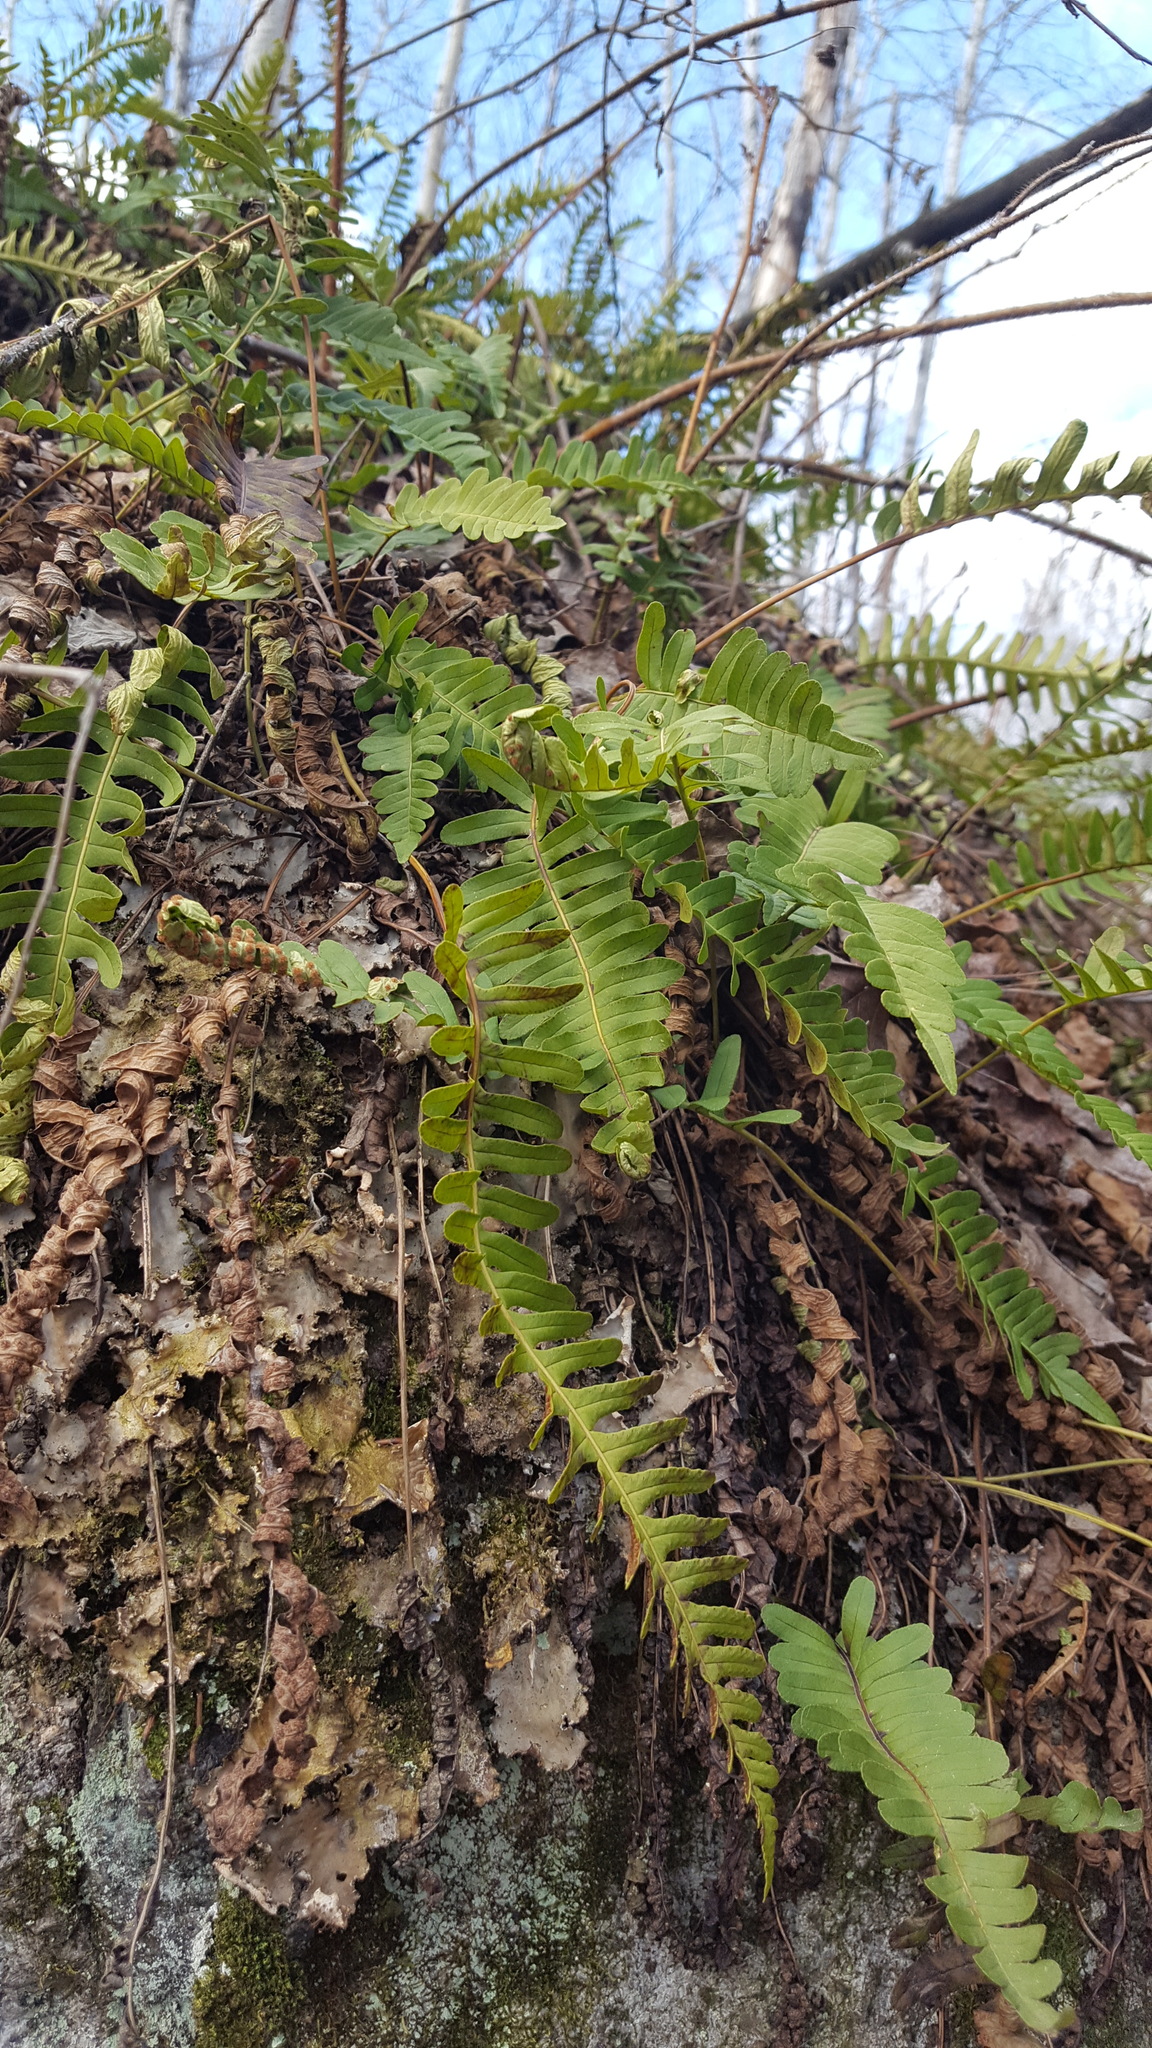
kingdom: Plantae
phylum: Tracheophyta
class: Polypodiopsida
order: Polypodiales
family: Polypodiaceae
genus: Polypodium
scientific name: Polypodium virginianum
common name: American wall fern
